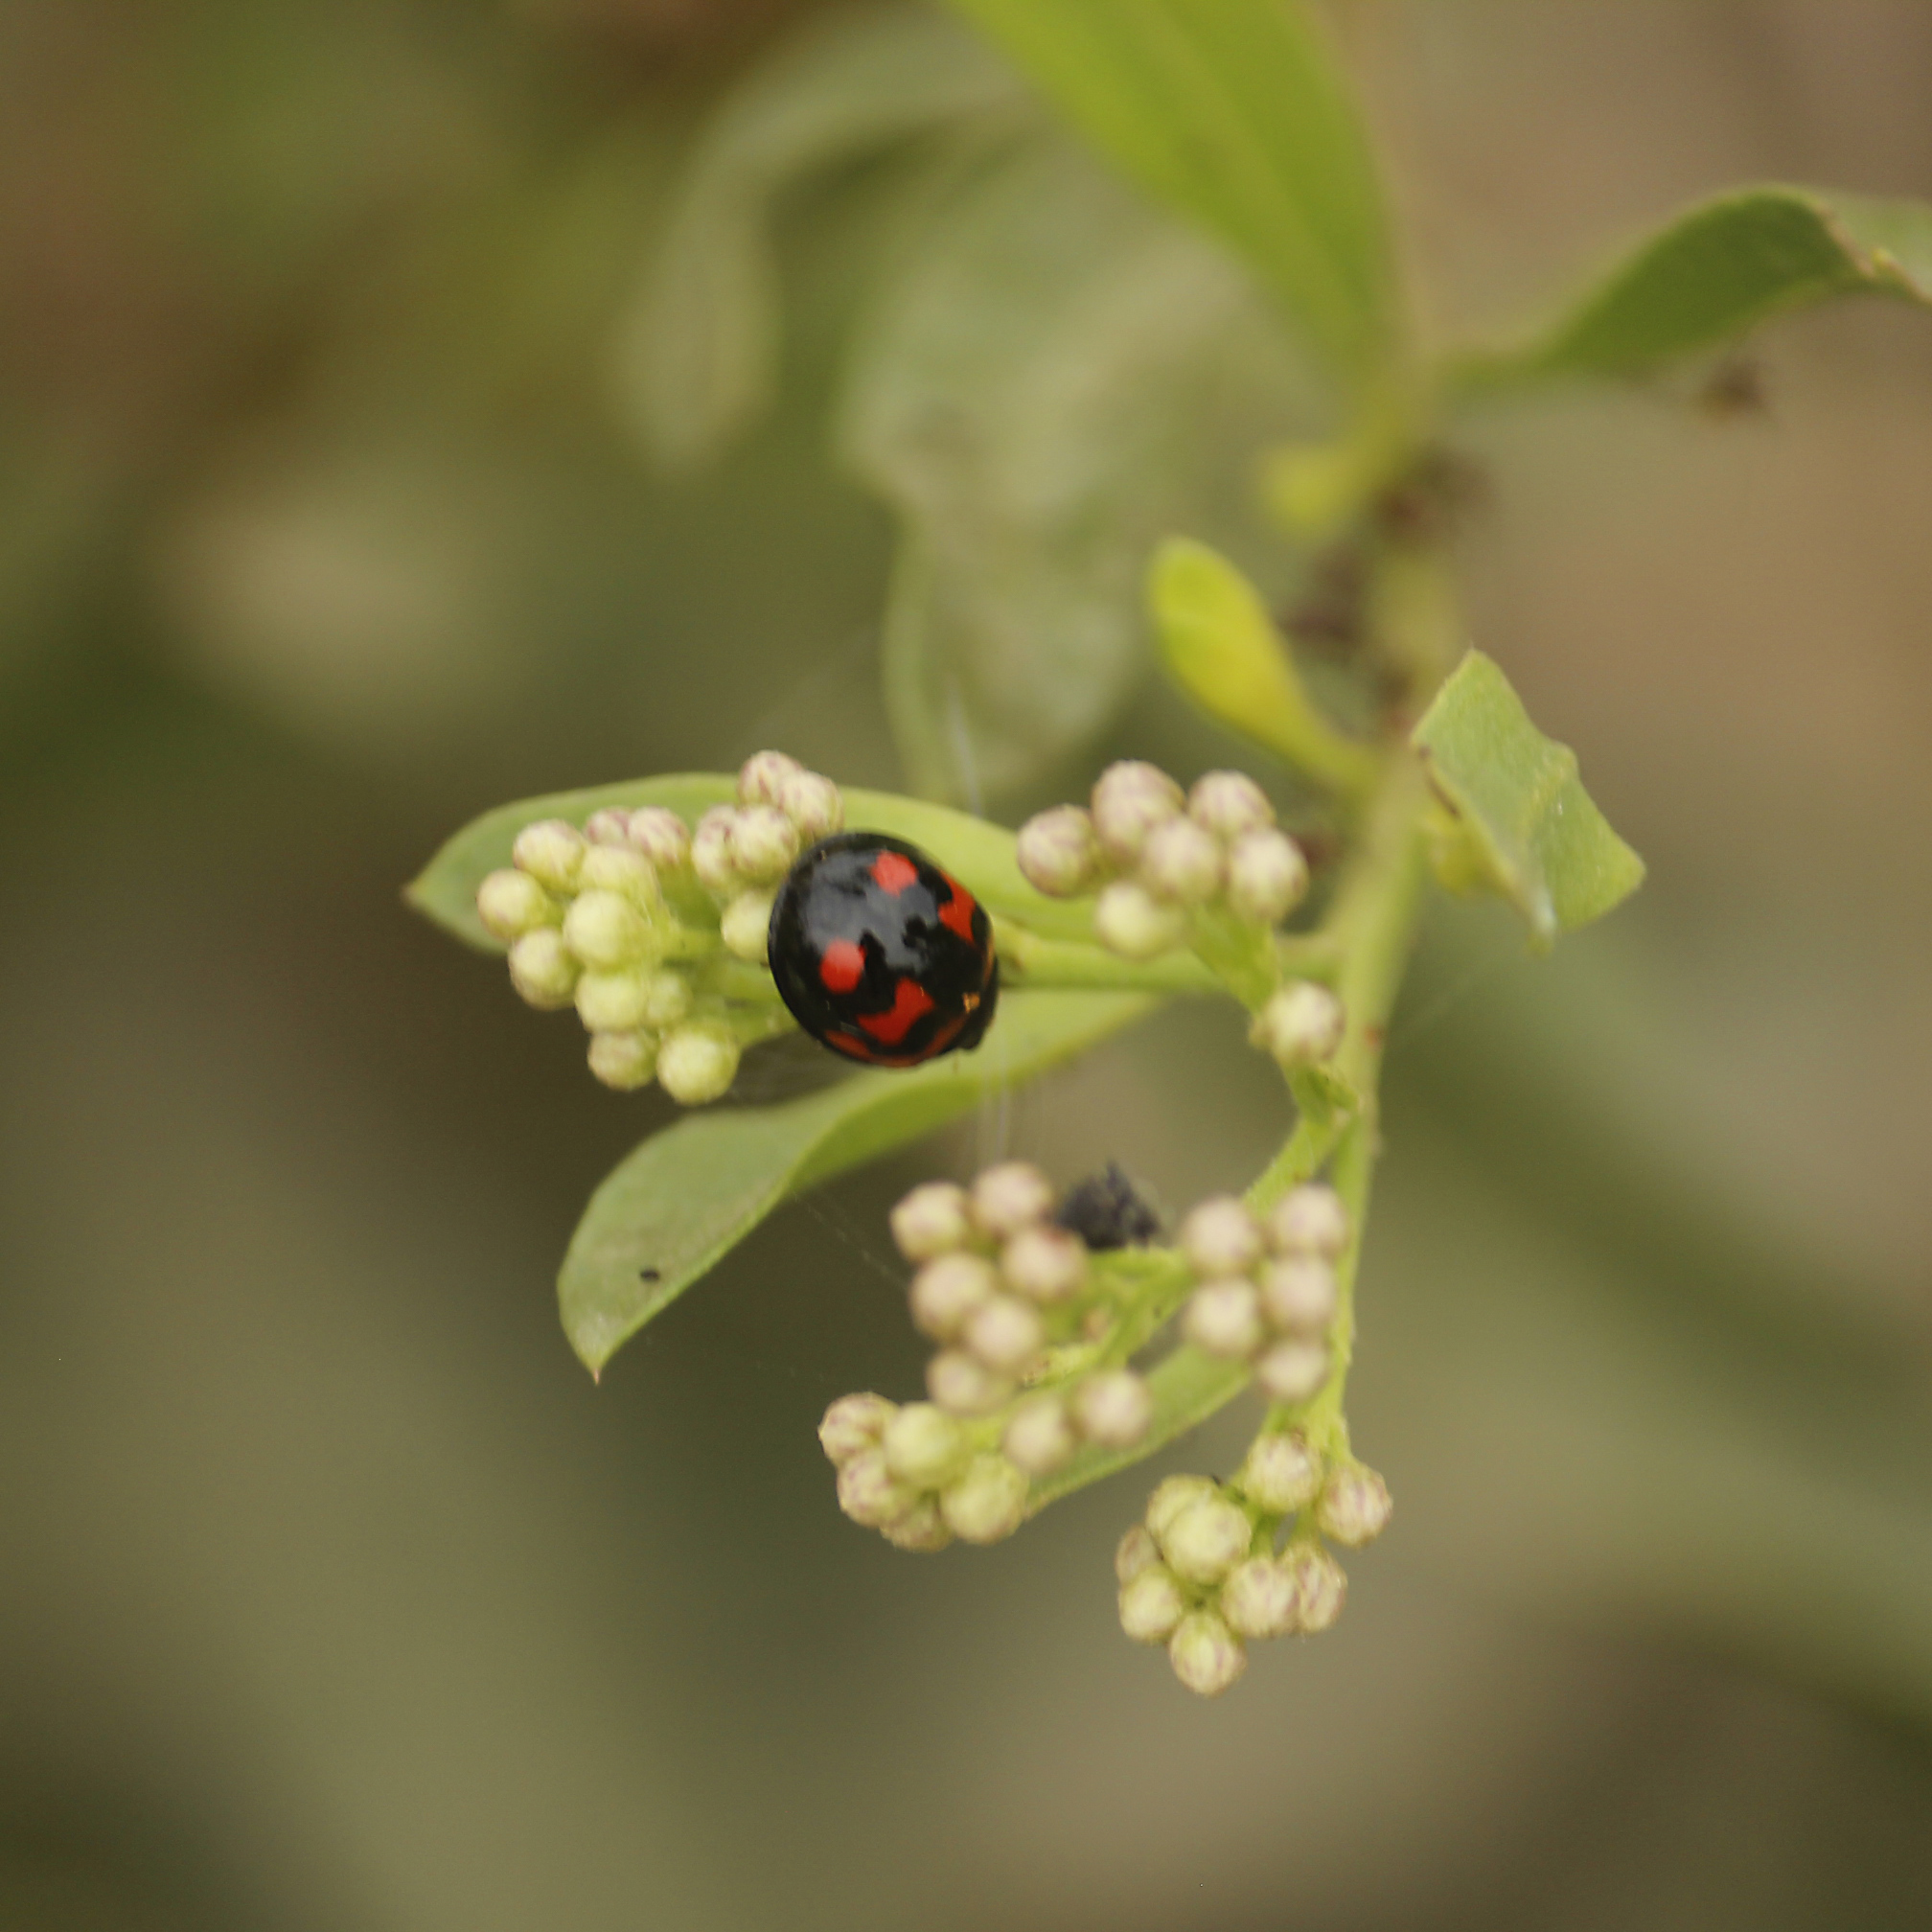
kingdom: Animalia
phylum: Arthropoda
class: Insecta
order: Coleoptera
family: Coccinellidae
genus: Cheilomenes
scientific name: Cheilomenes sexmaculata
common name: Ladybird beetle
